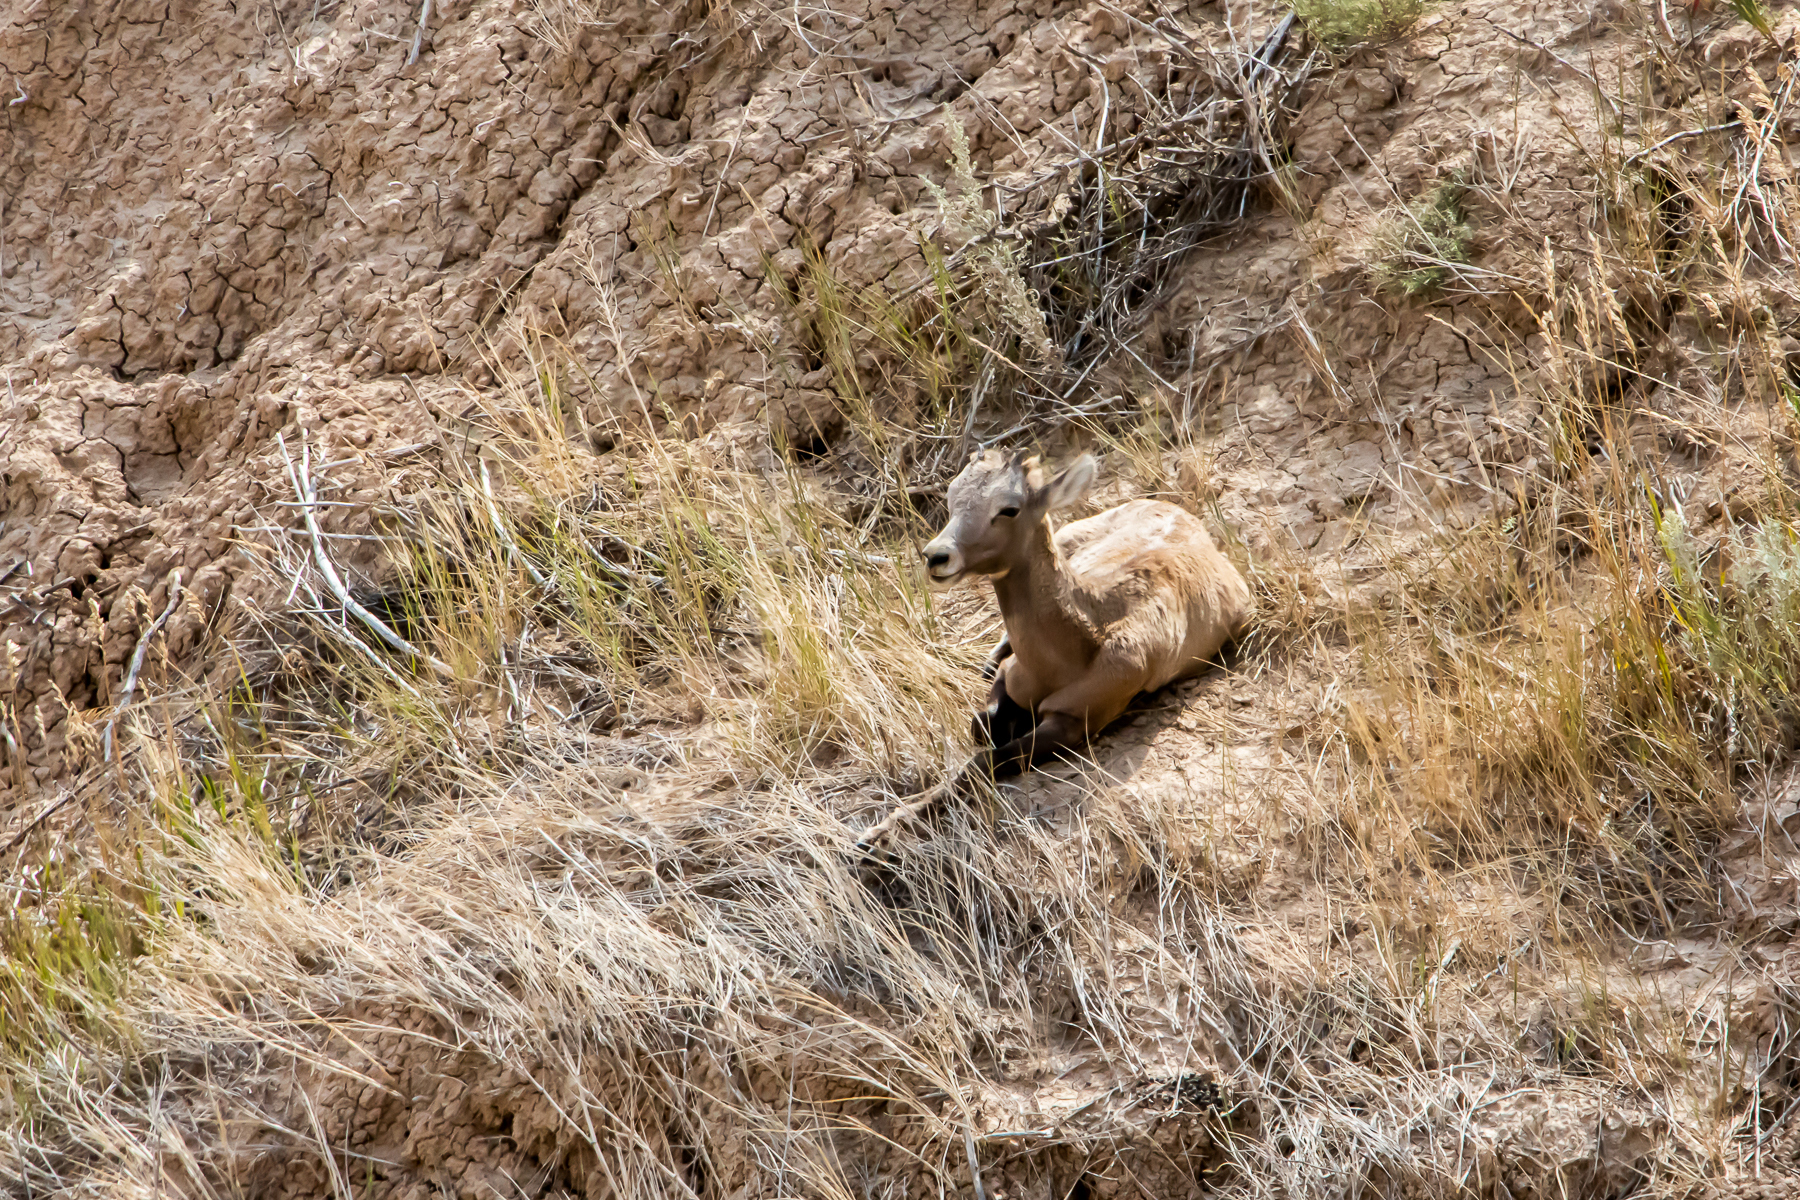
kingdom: Animalia
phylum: Chordata
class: Mammalia
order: Artiodactyla
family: Bovidae
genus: Ovis
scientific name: Ovis canadensis
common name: Bighorn sheep
